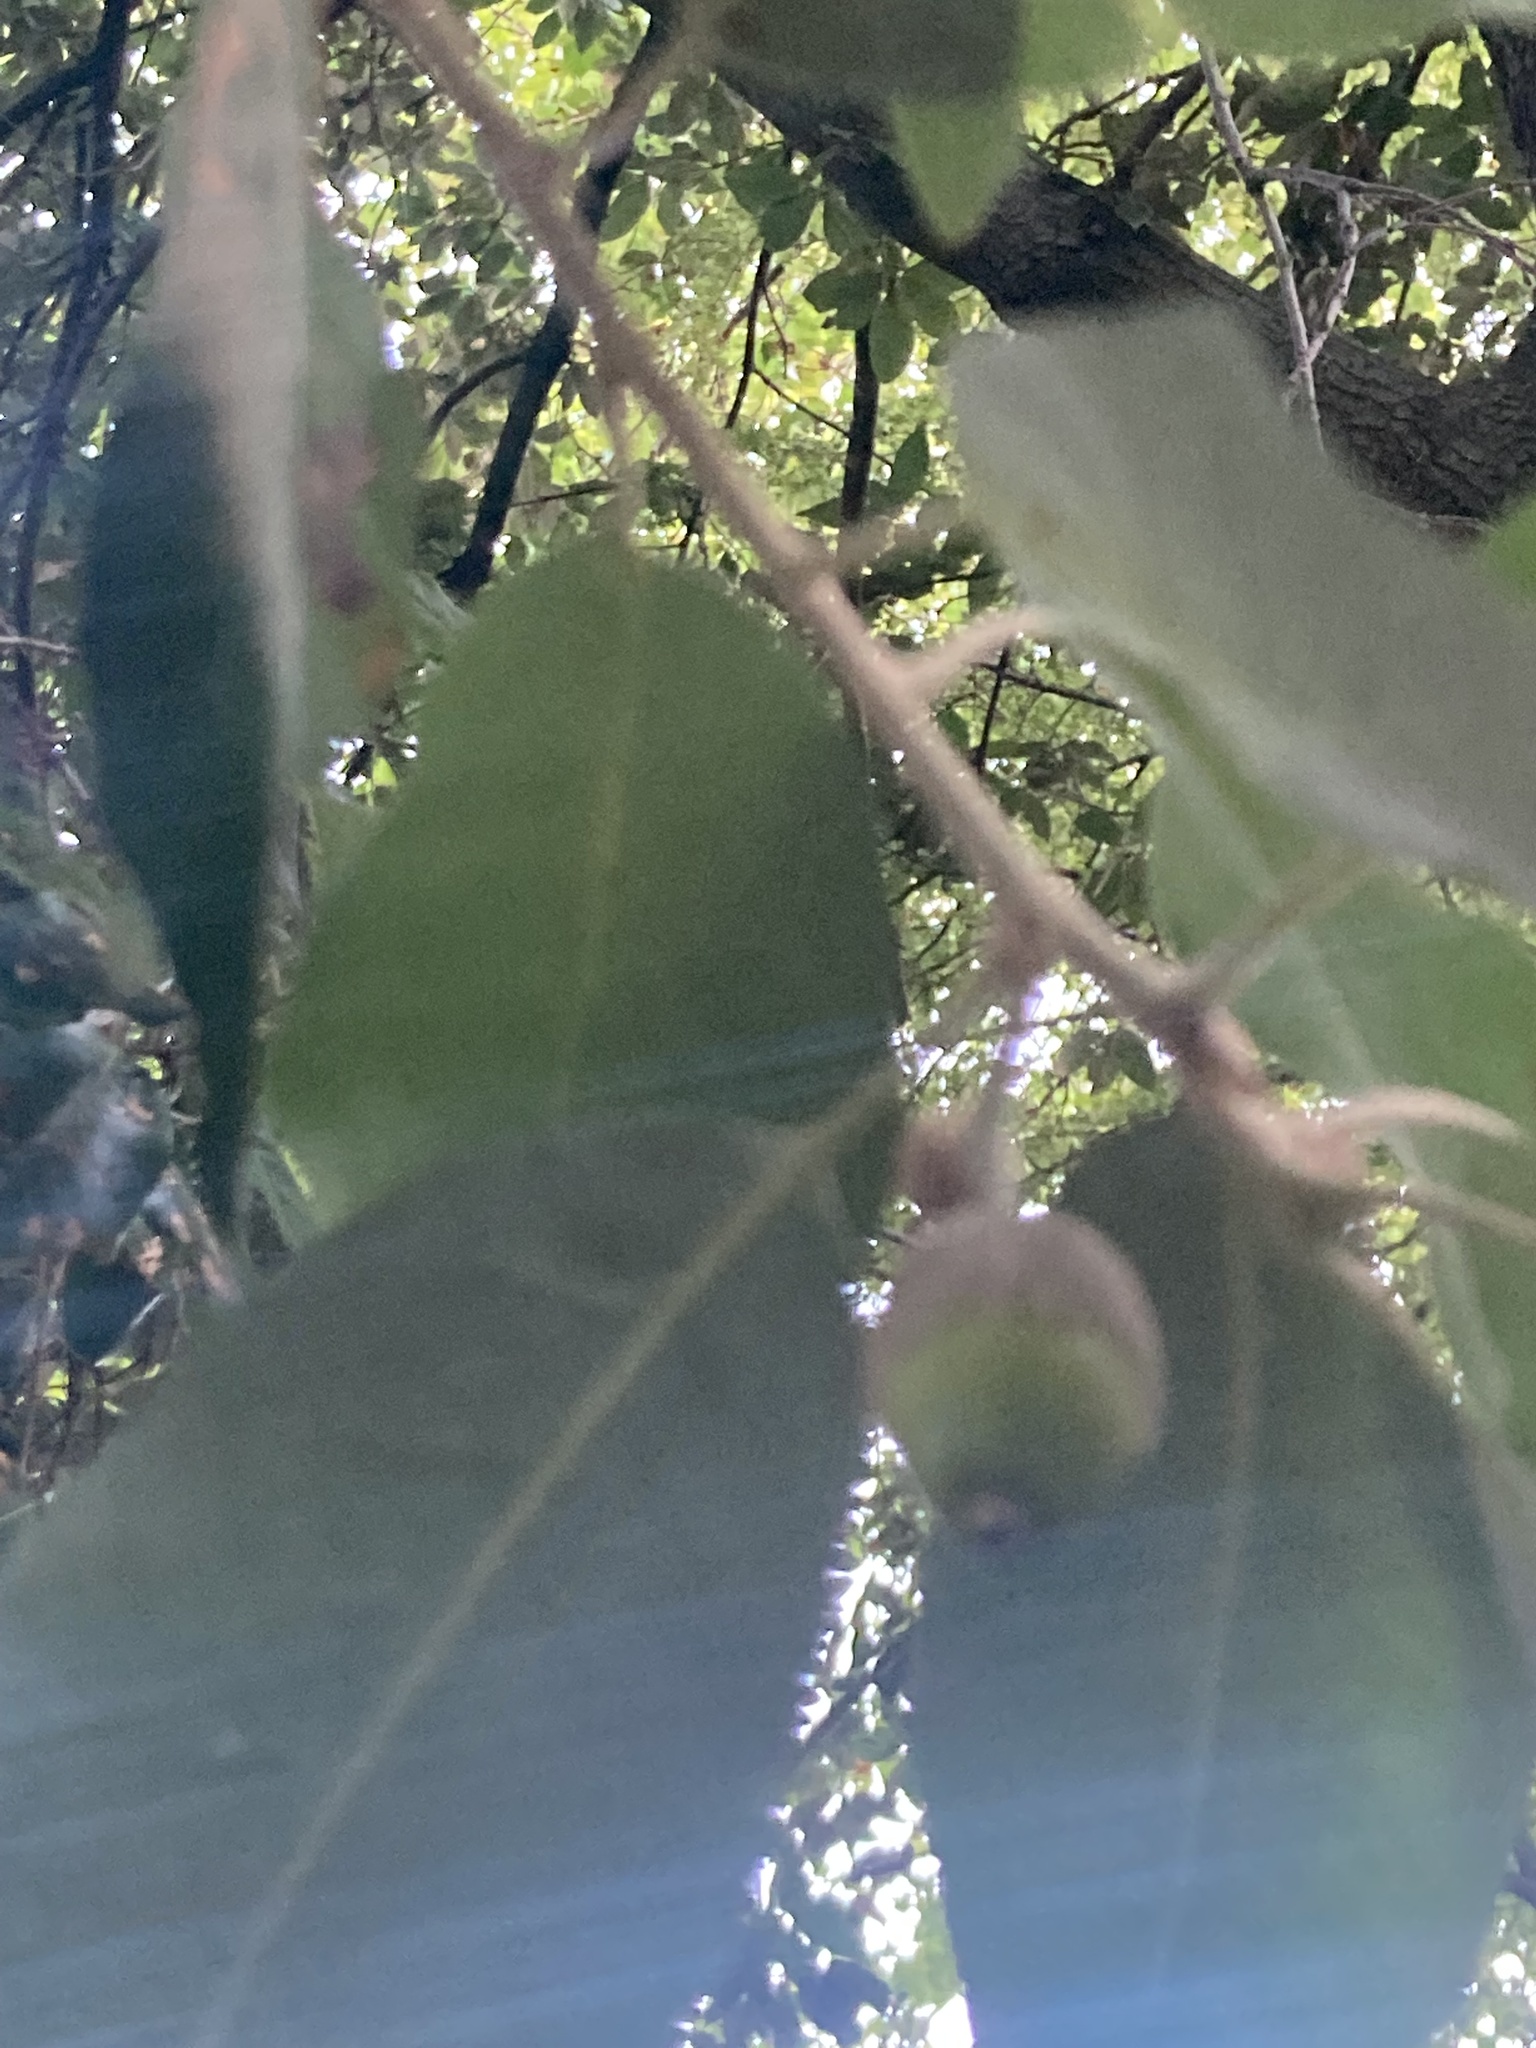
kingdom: Plantae
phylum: Tracheophyta
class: Magnoliopsida
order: Fagales
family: Fagaceae
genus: Quercus
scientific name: Quercus ilex
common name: Evergreen oak
